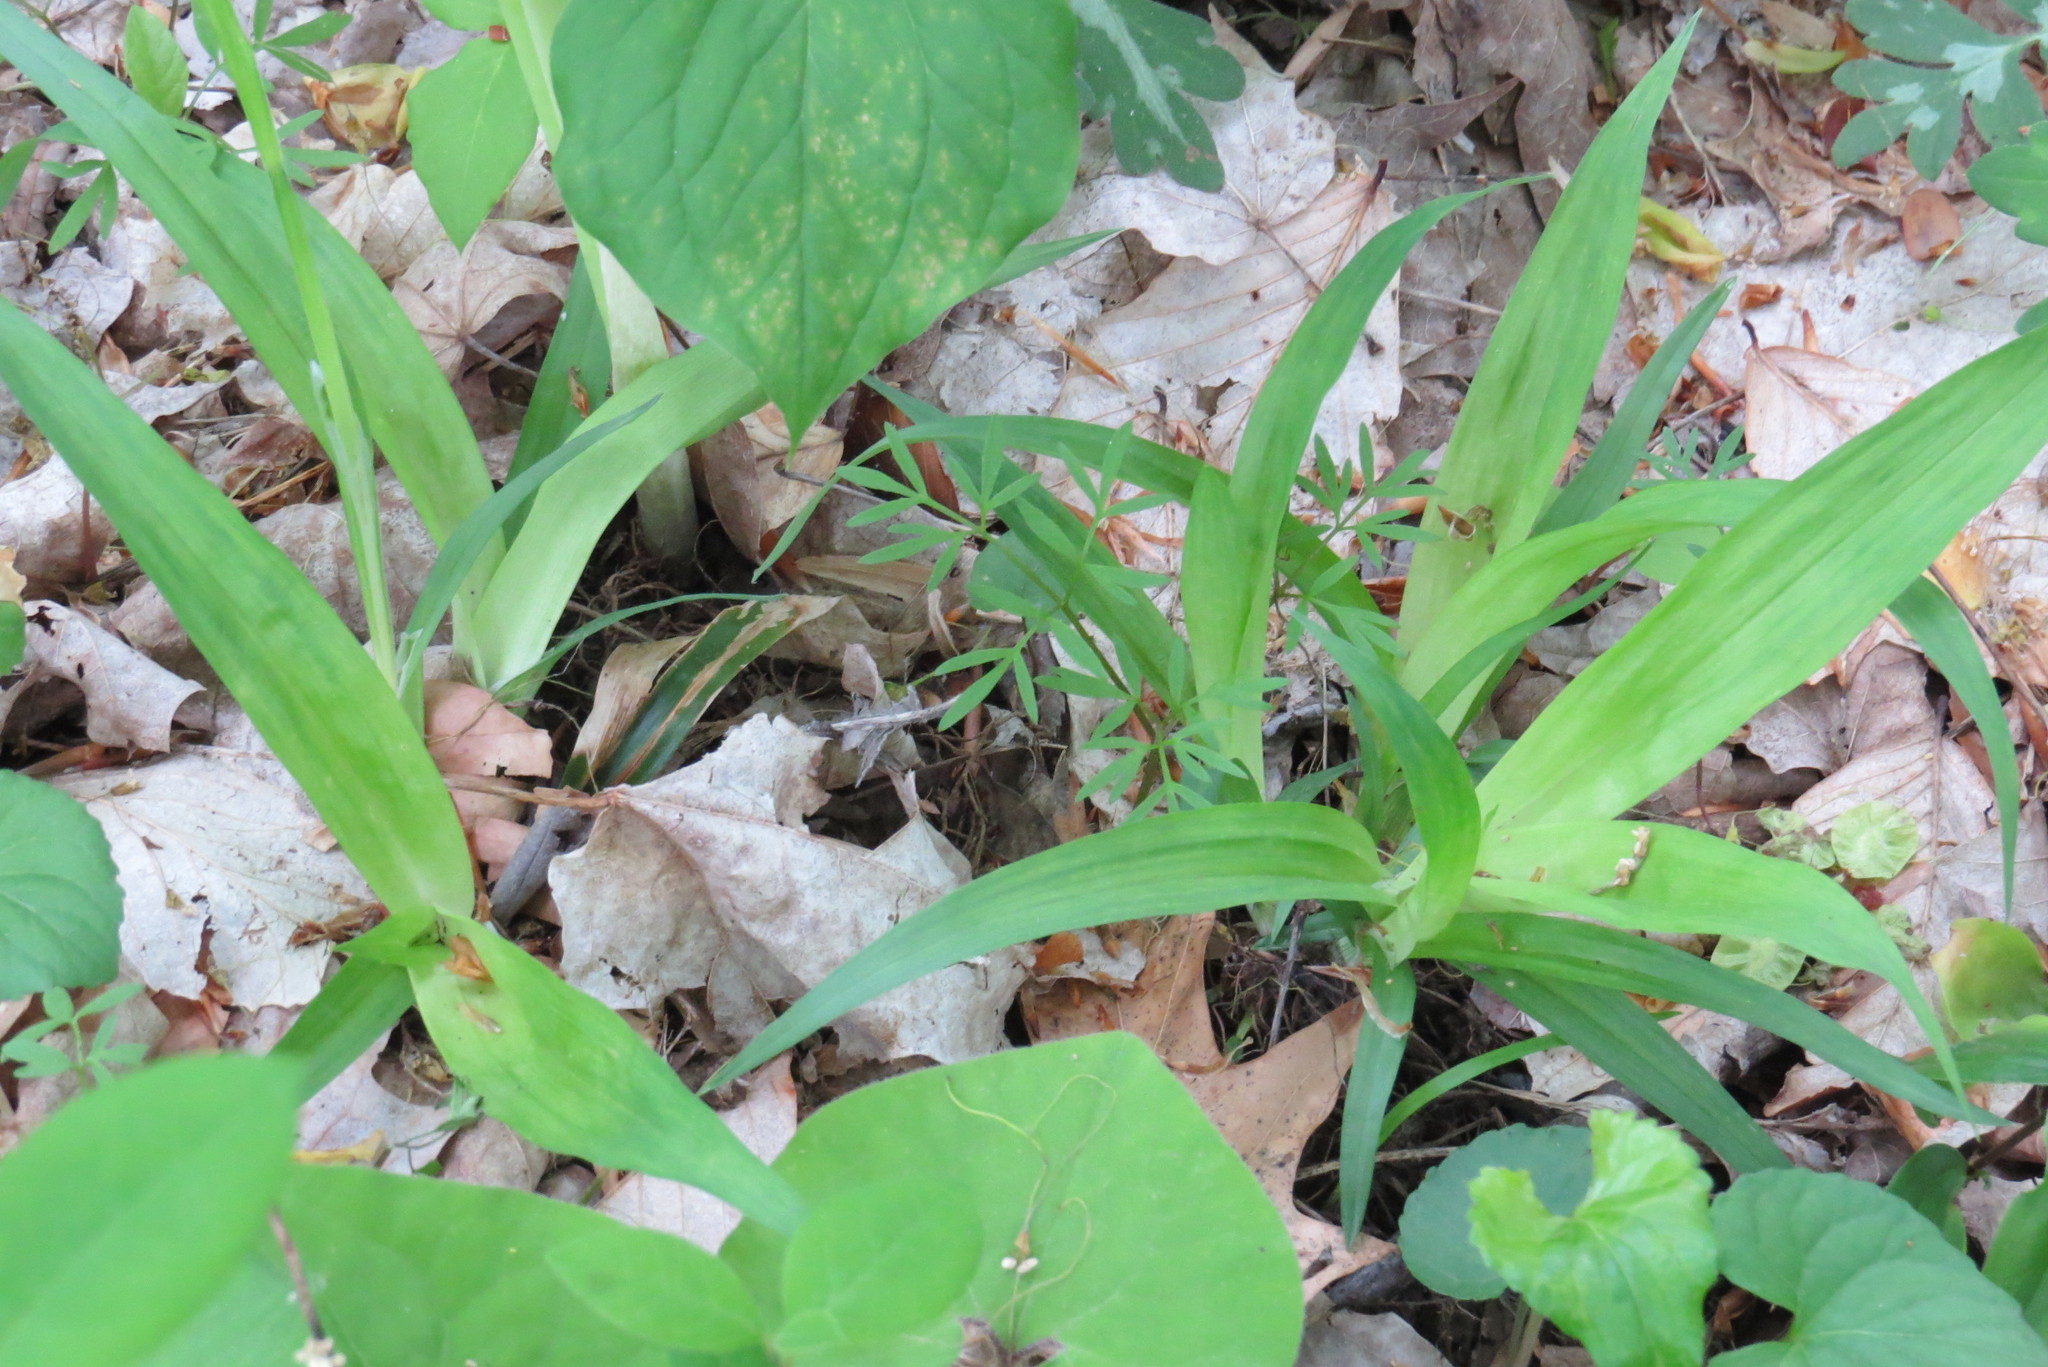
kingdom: Plantae
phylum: Tracheophyta
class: Liliopsida
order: Poales
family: Cyperaceae
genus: Carex
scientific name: Carex albursina
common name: Blunt-scale wood sedge
